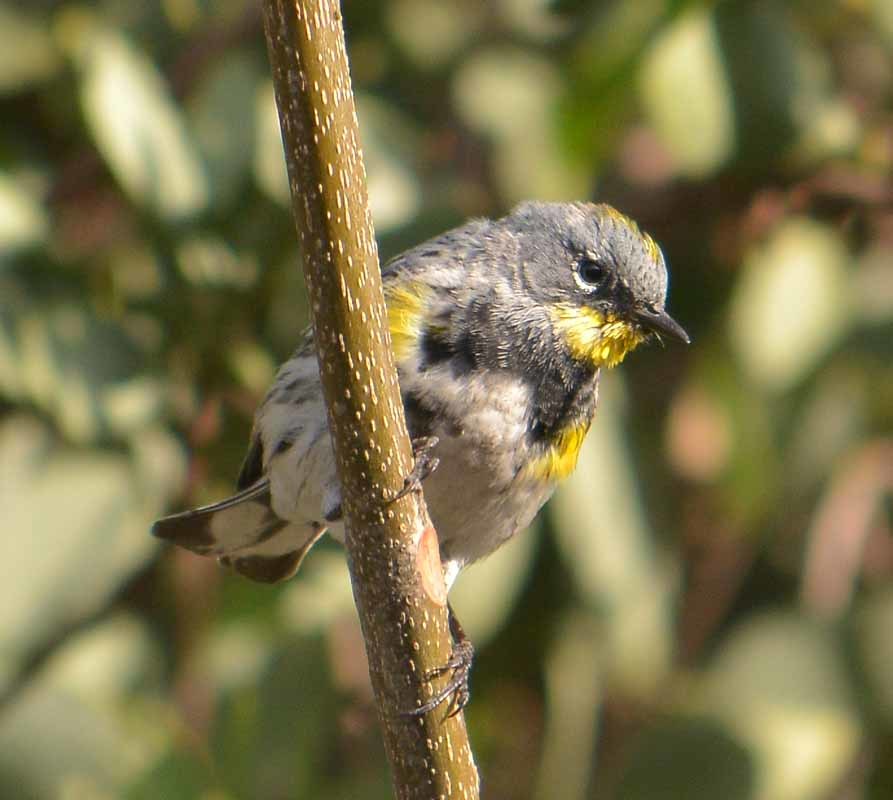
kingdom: Animalia
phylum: Chordata
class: Aves
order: Passeriformes
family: Parulidae
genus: Setophaga
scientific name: Setophaga coronata
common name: Myrtle warbler
